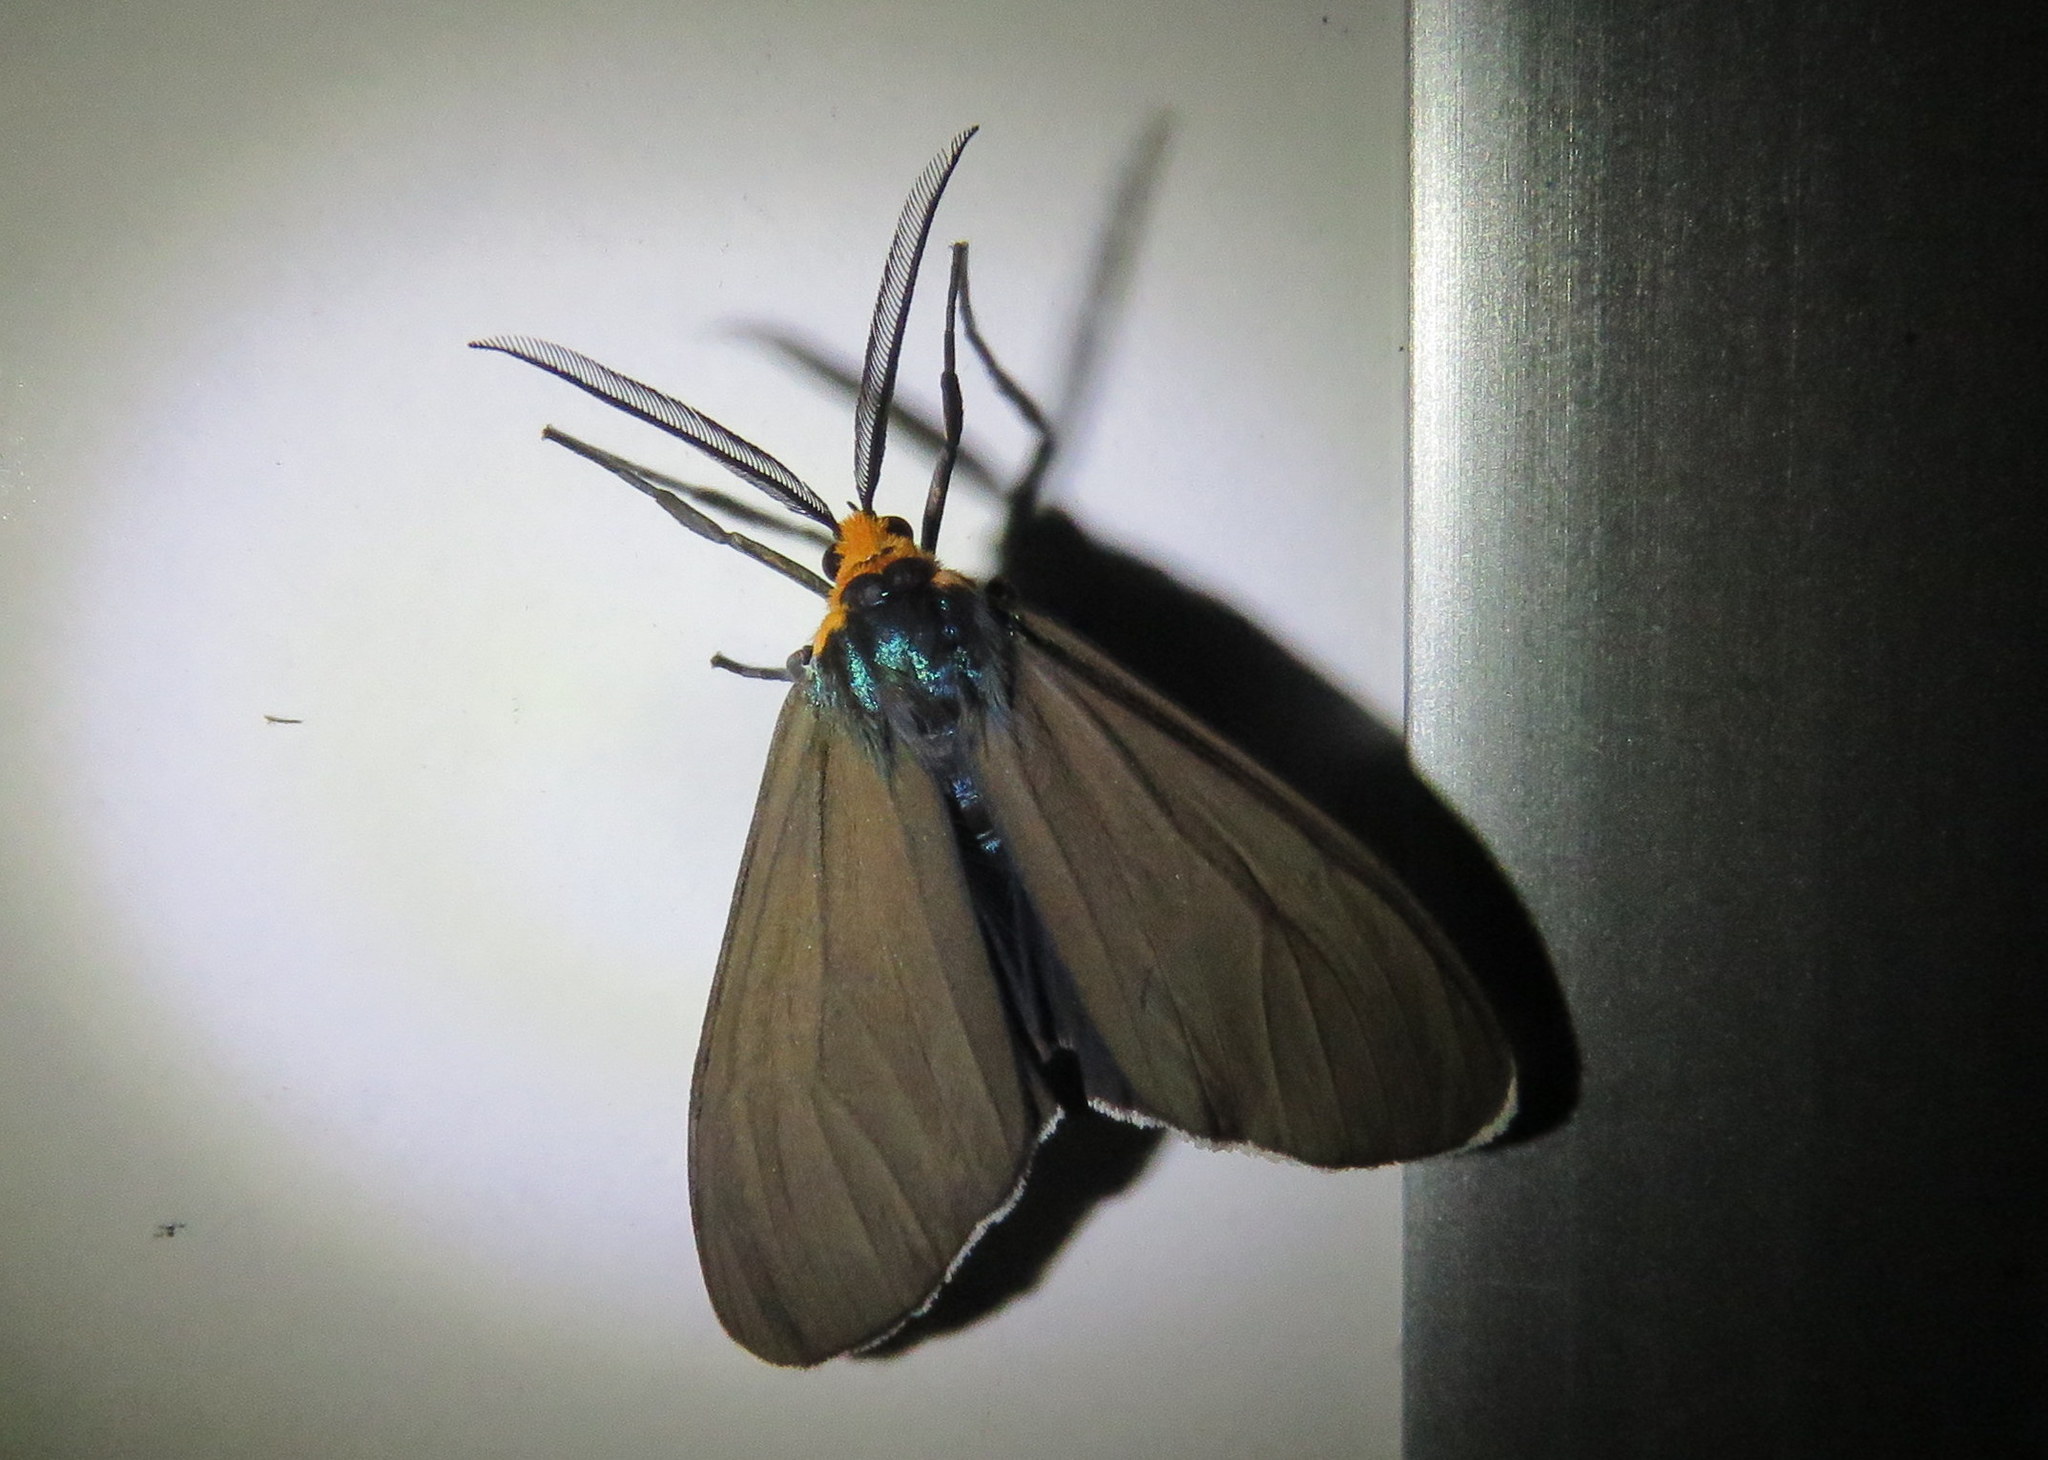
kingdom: Animalia
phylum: Arthropoda
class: Insecta
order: Lepidoptera
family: Erebidae
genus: Ctenucha
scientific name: Ctenucha virginica
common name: Virginia ctenucha moth
